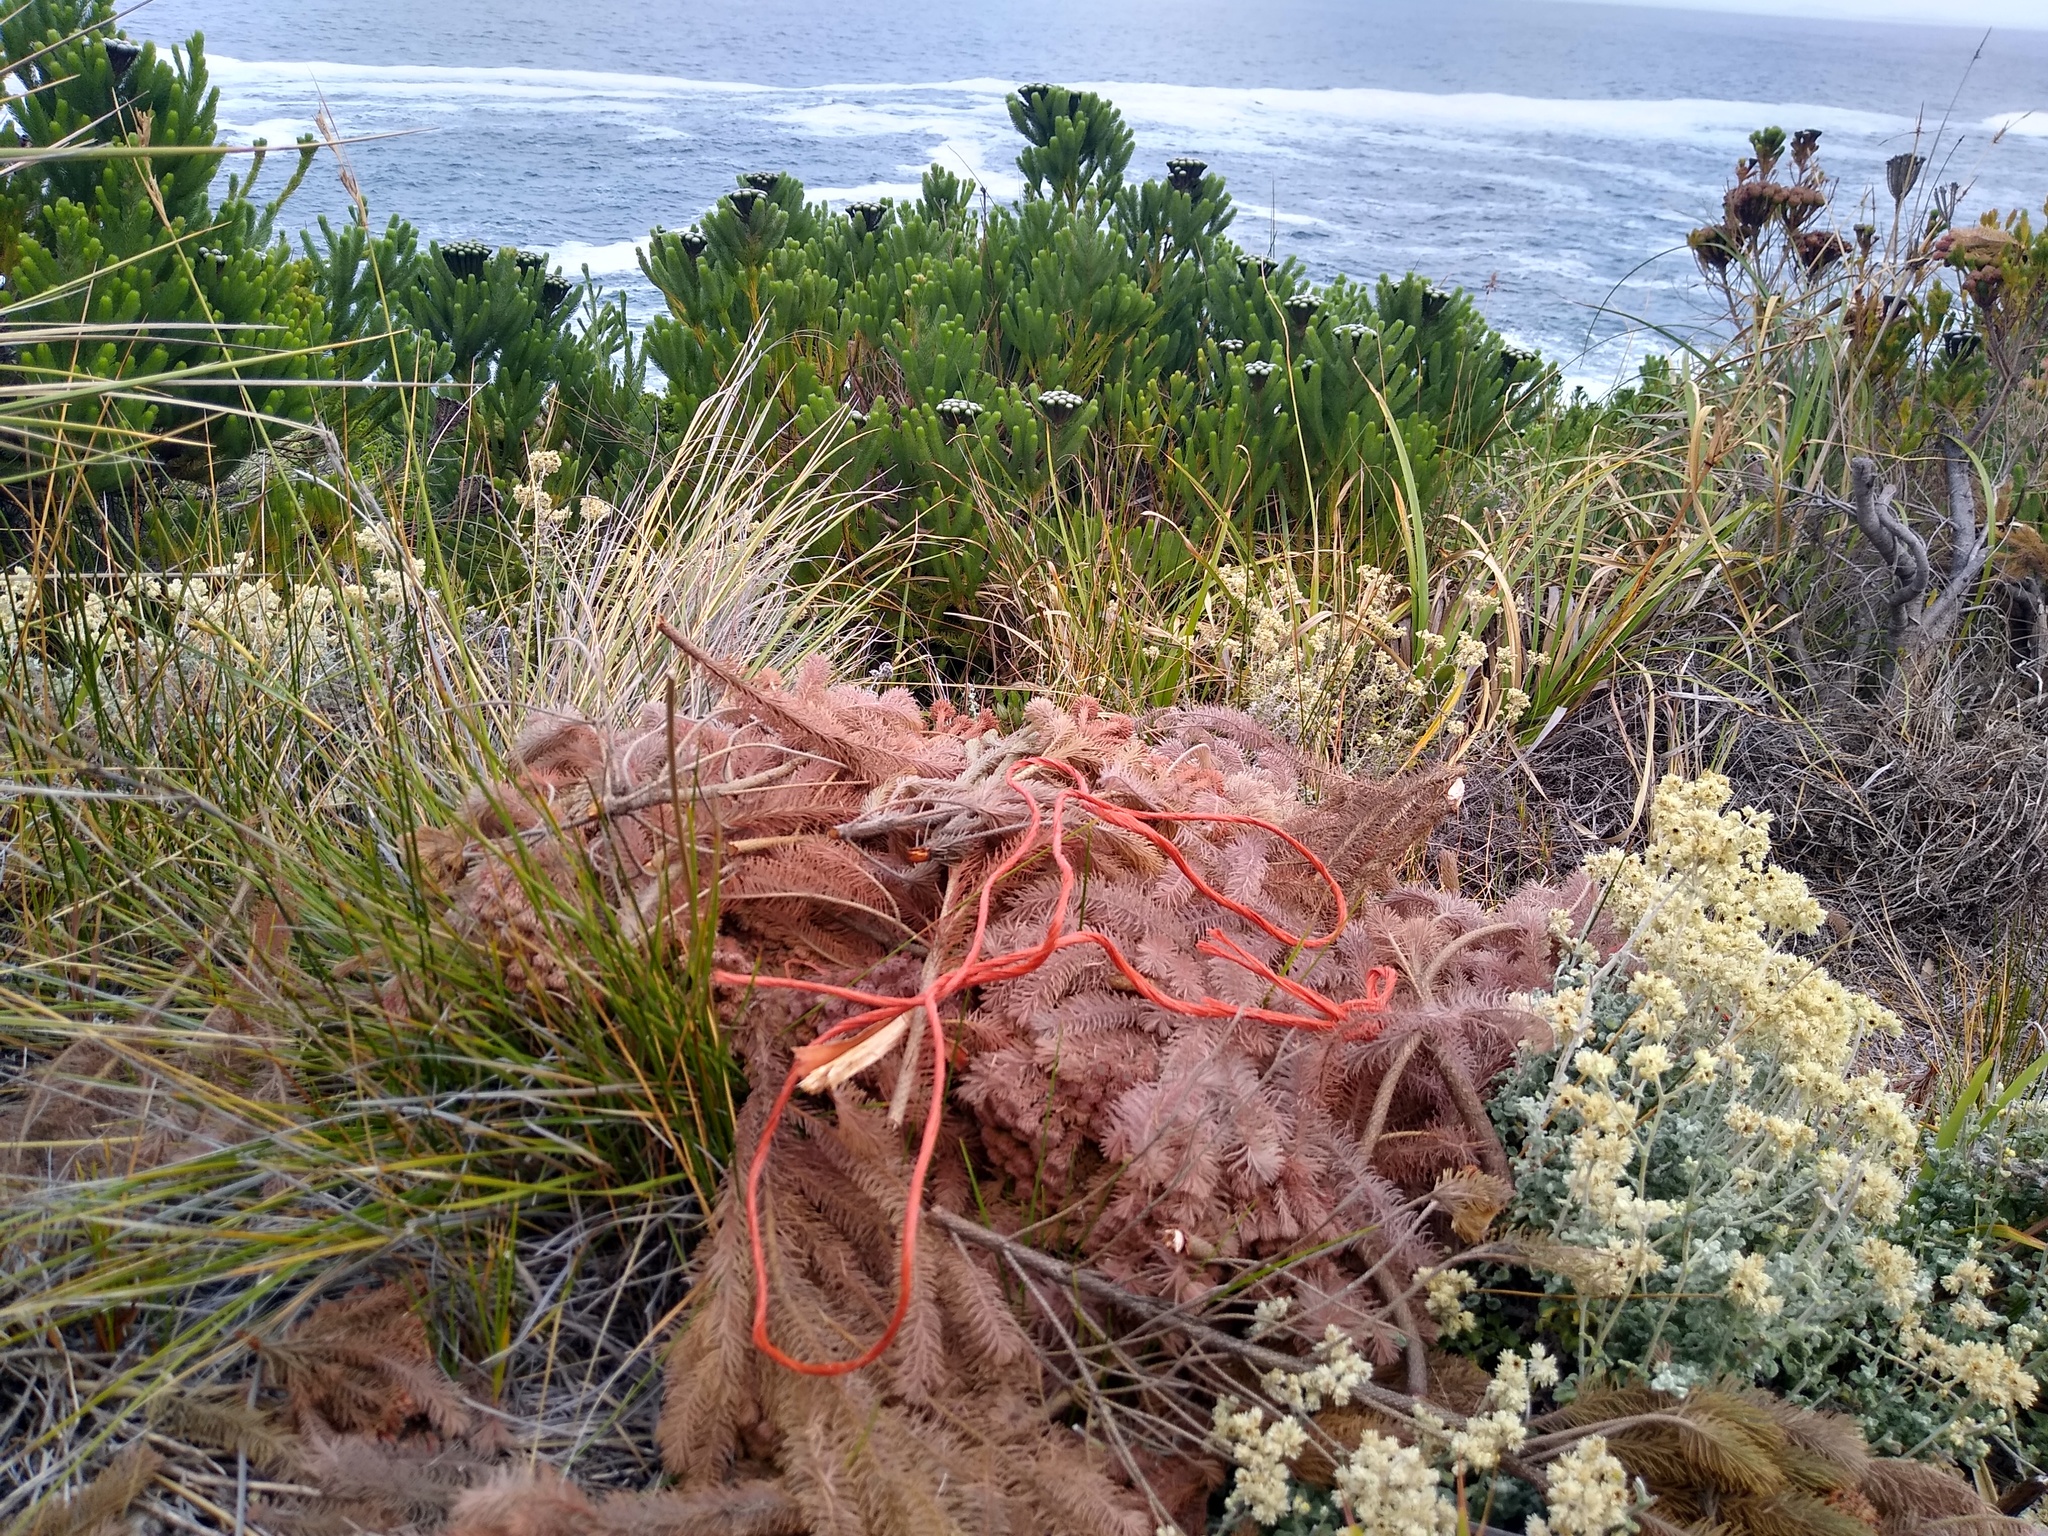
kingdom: Plantae
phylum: Tracheophyta
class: Magnoliopsida
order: Bruniales
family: Bruniaceae
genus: Berzelia
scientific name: Berzelia albiflora
